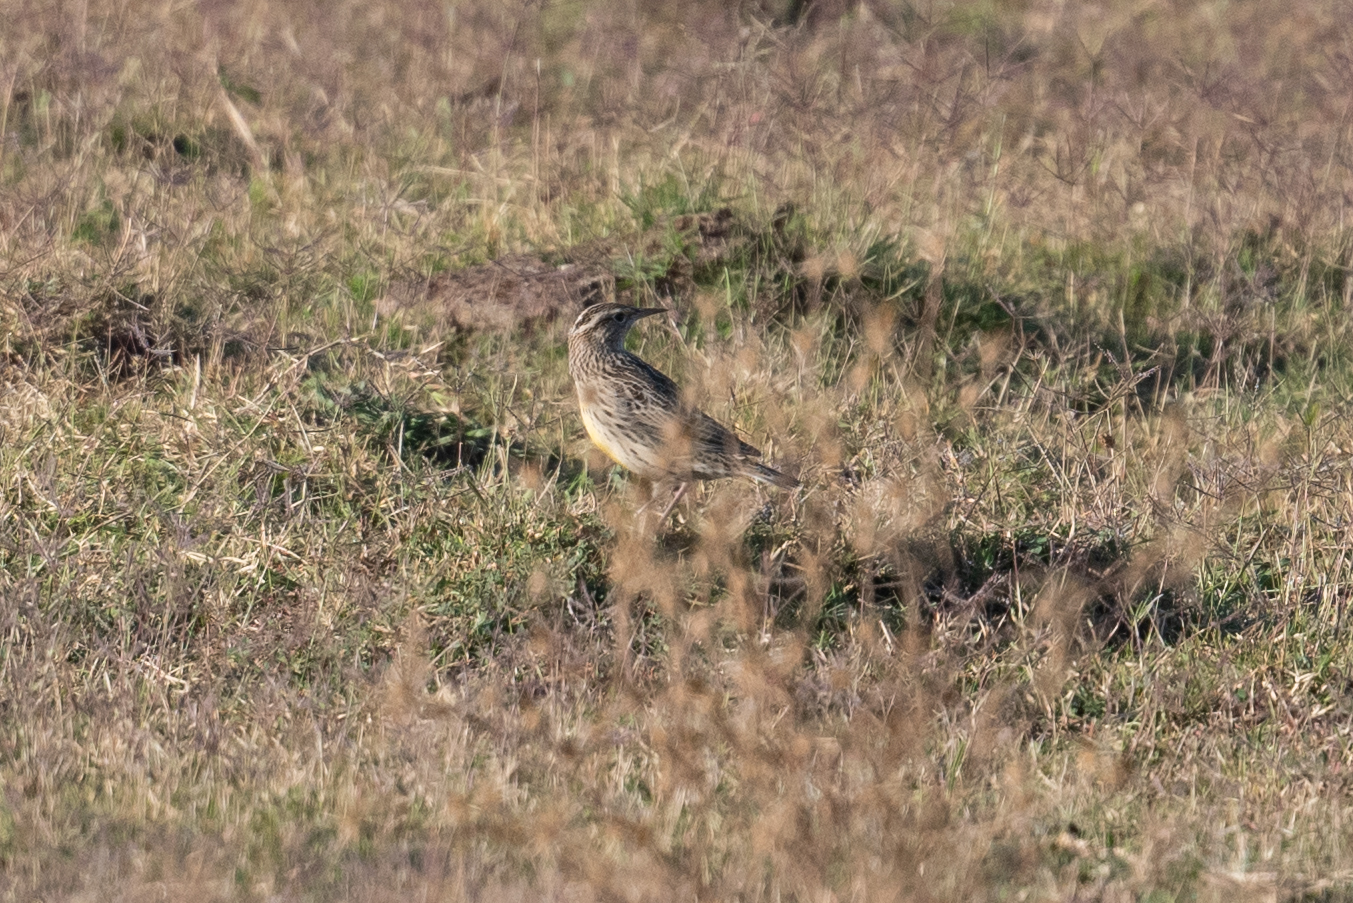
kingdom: Animalia
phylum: Chordata
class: Aves
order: Passeriformes
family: Icteridae
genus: Sturnella
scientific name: Sturnella neglecta
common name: Western meadowlark
